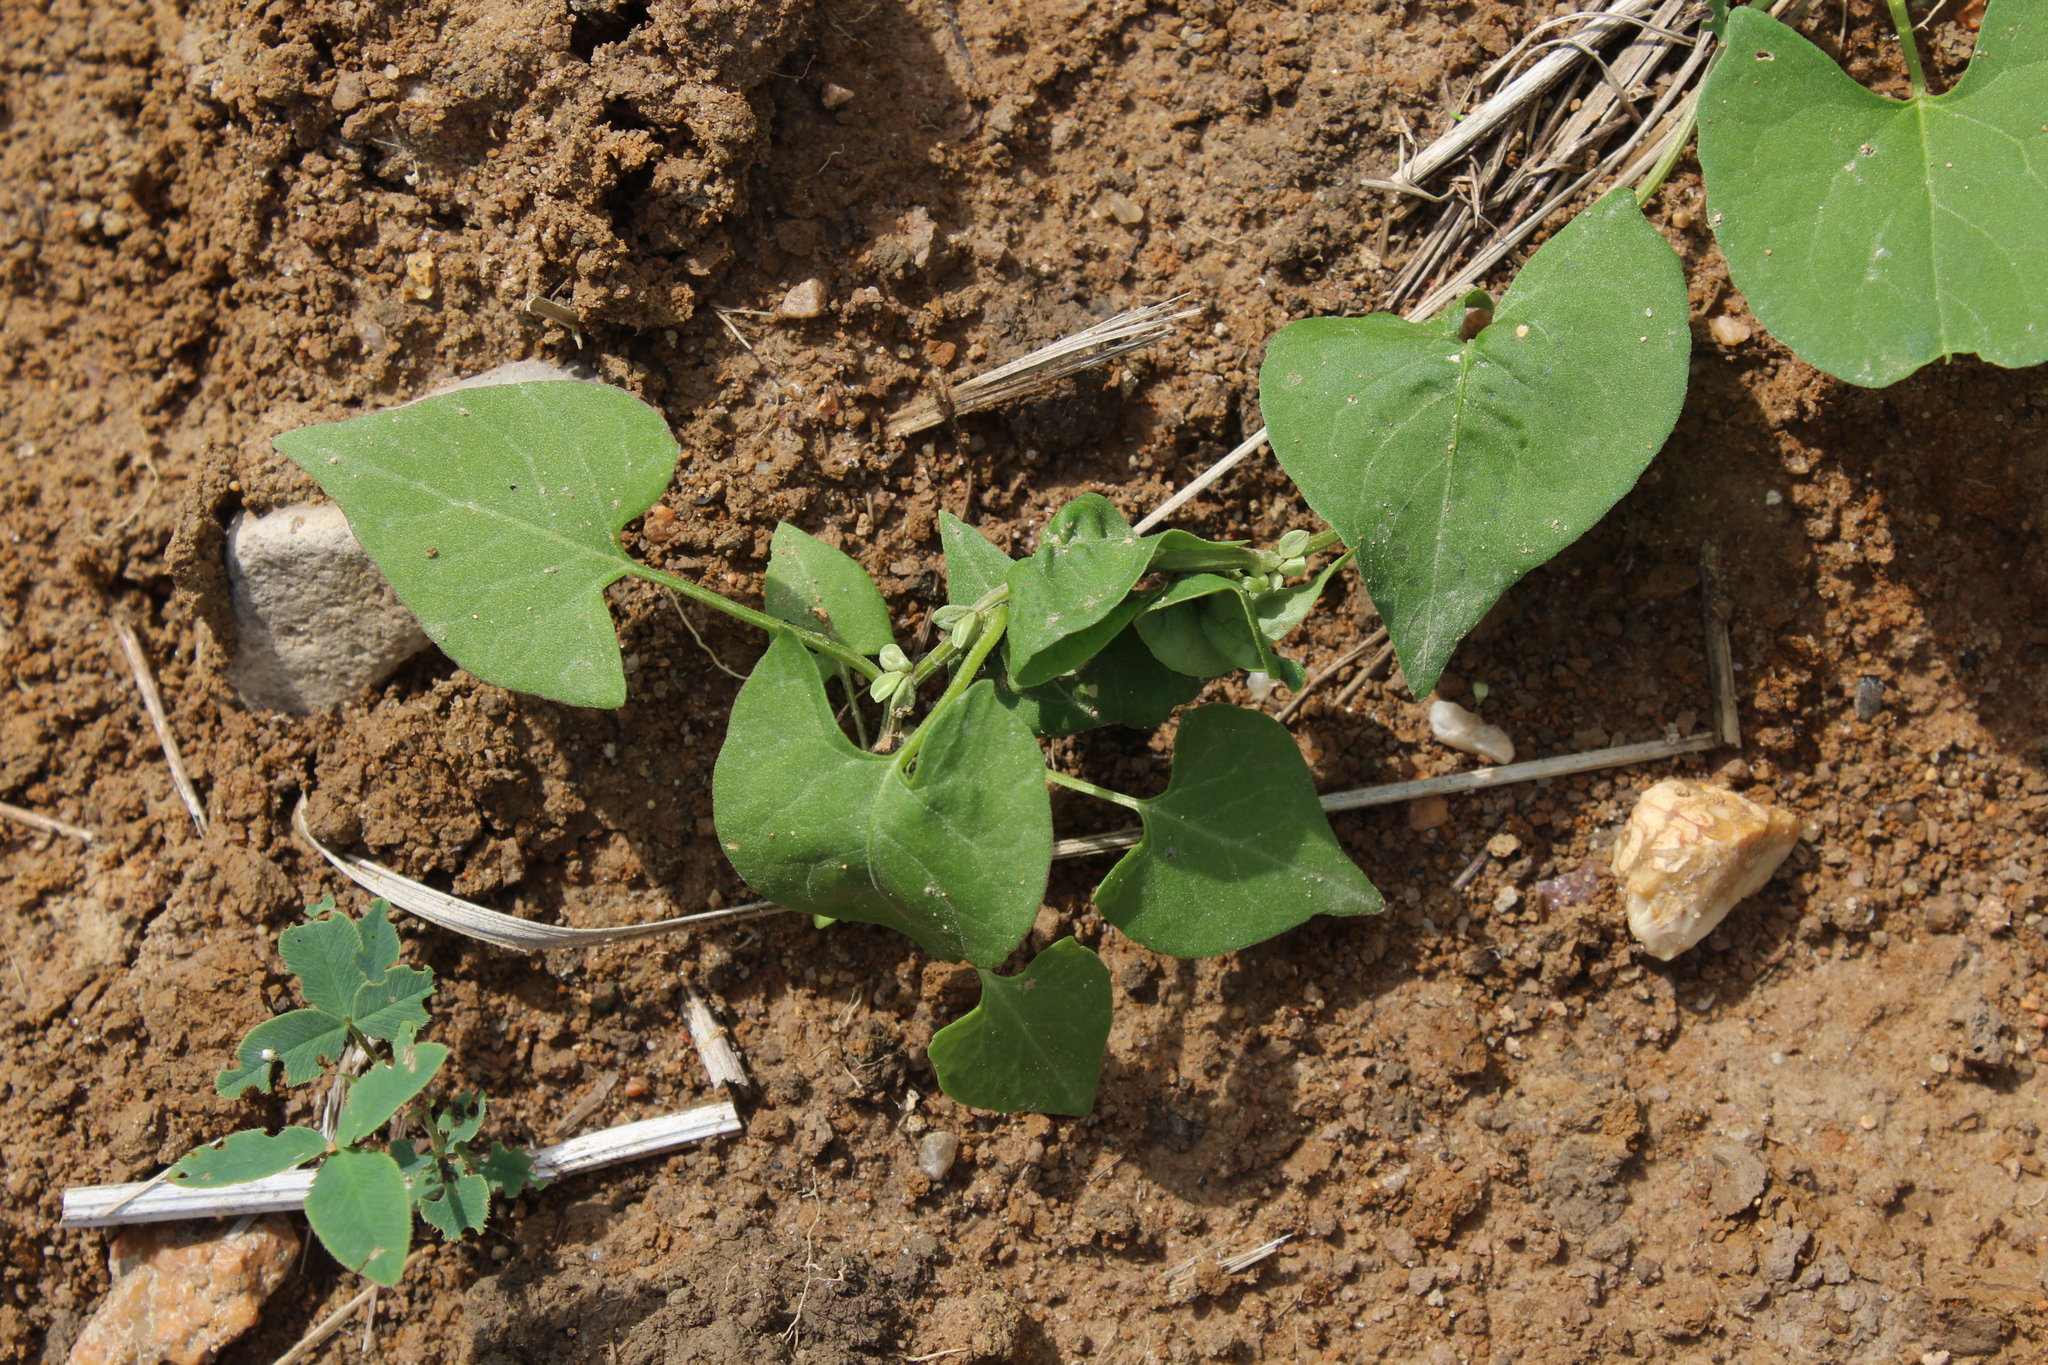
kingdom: Plantae
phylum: Tracheophyta
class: Magnoliopsida
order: Caryophyllales
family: Polygonaceae
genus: Fallopia
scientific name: Fallopia convolvulus
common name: Black bindweed
